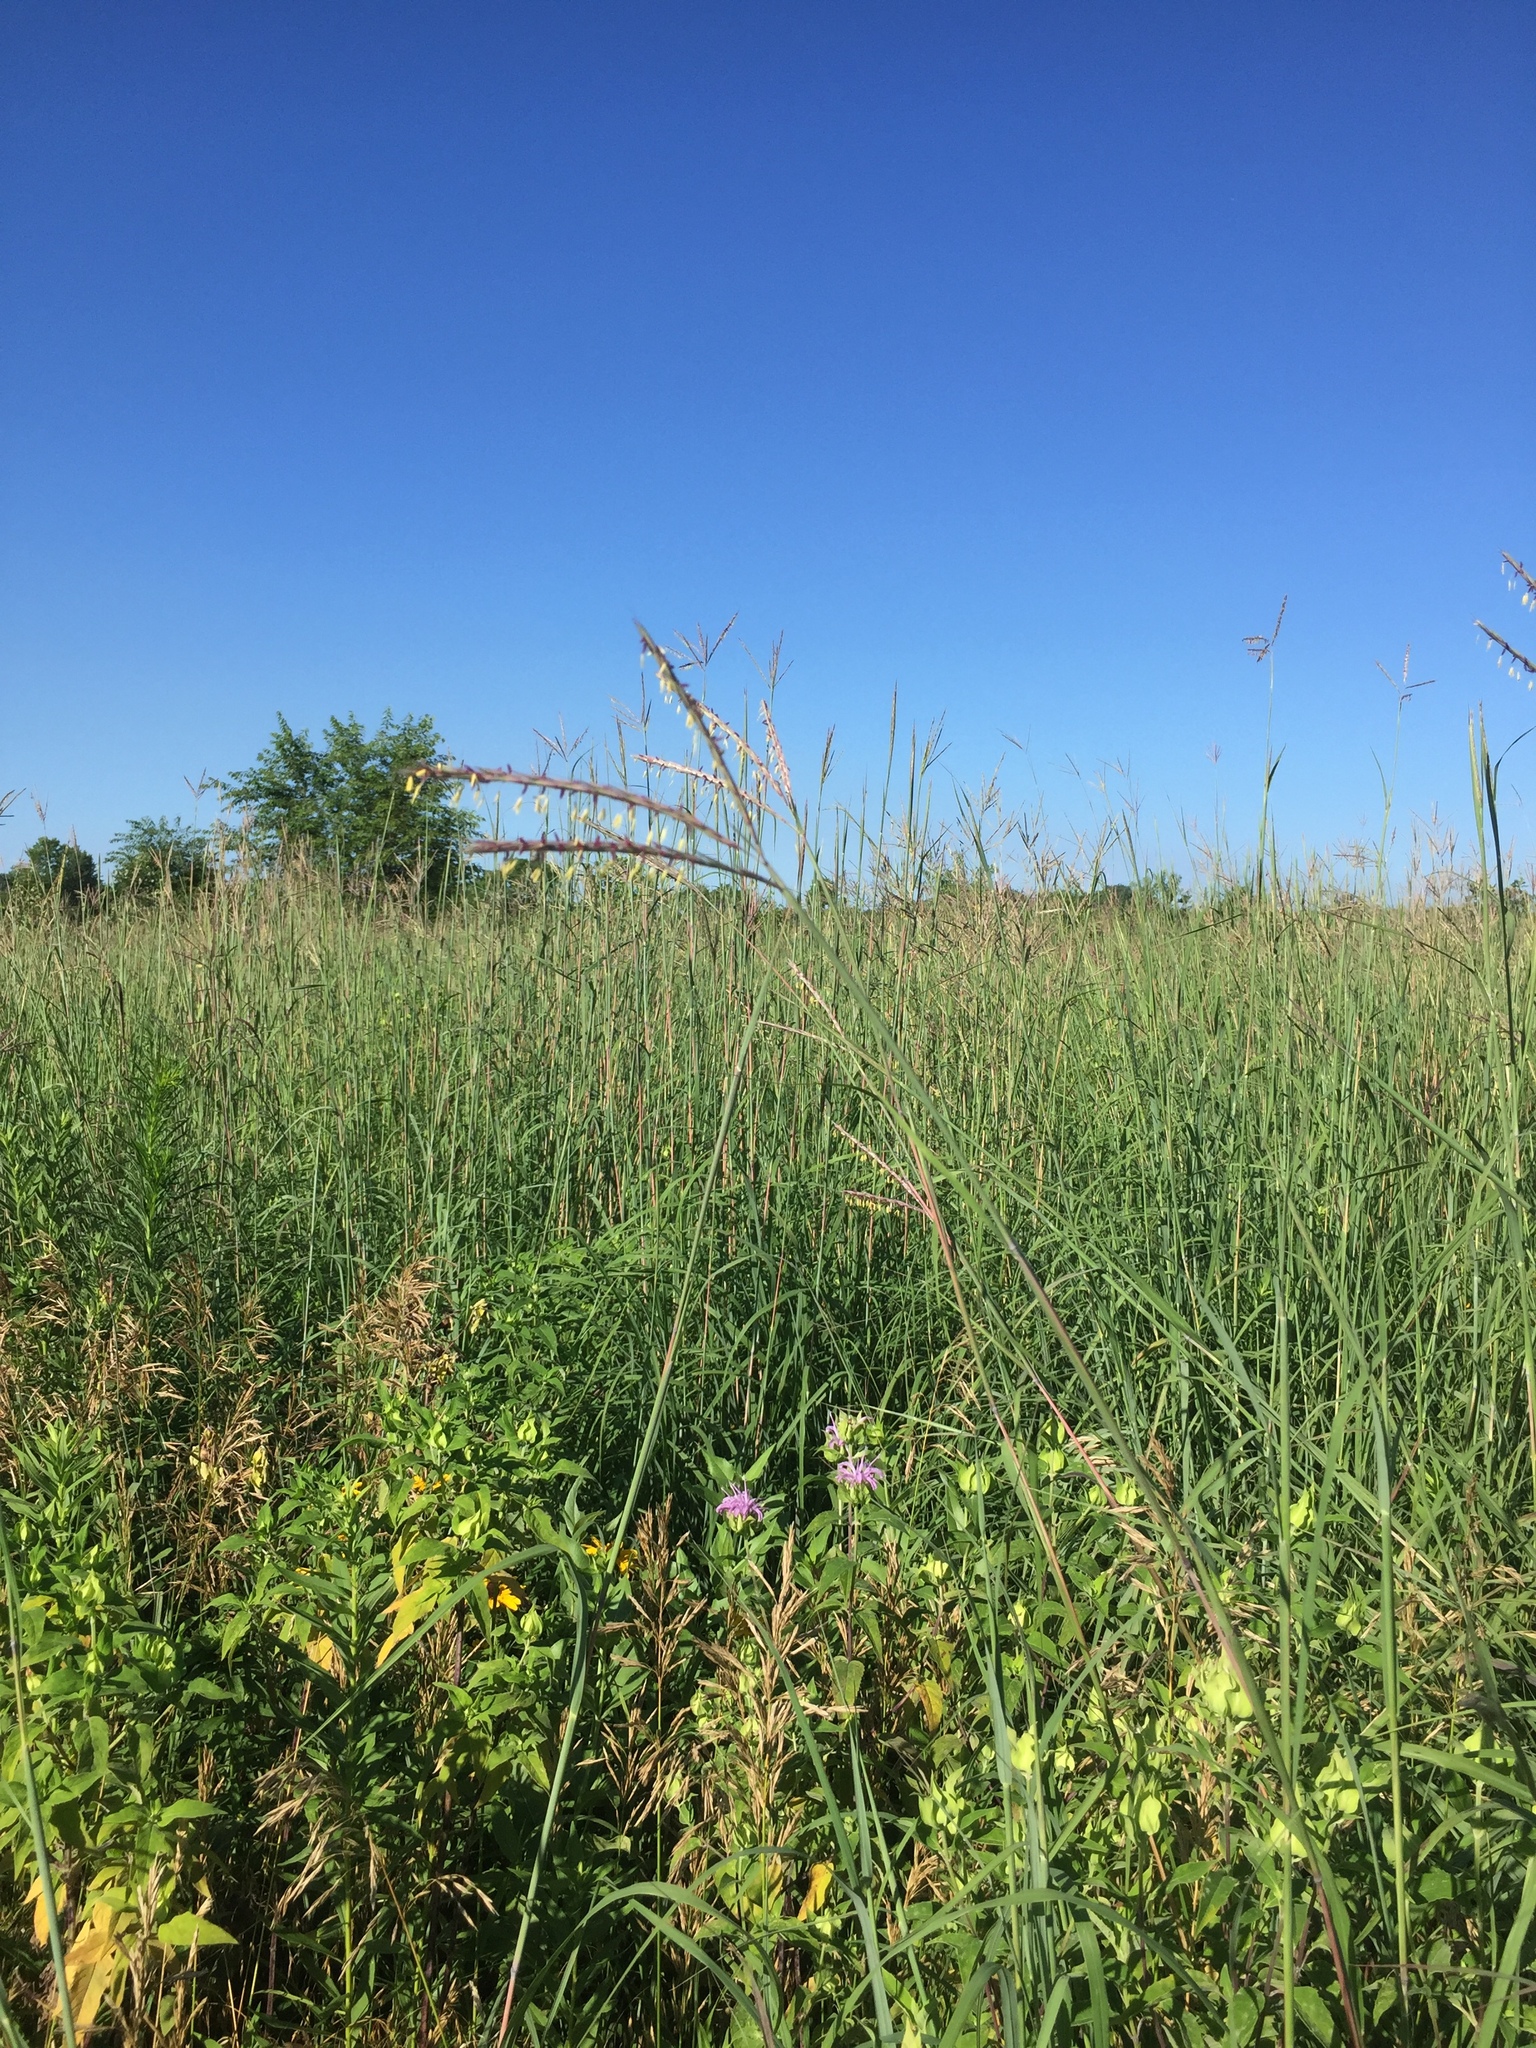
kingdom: Plantae
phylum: Tracheophyta
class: Liliopsida
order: Poales
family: Poaceae
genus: Andropogon
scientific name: Andropogon gerardi
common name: Big bluestem
